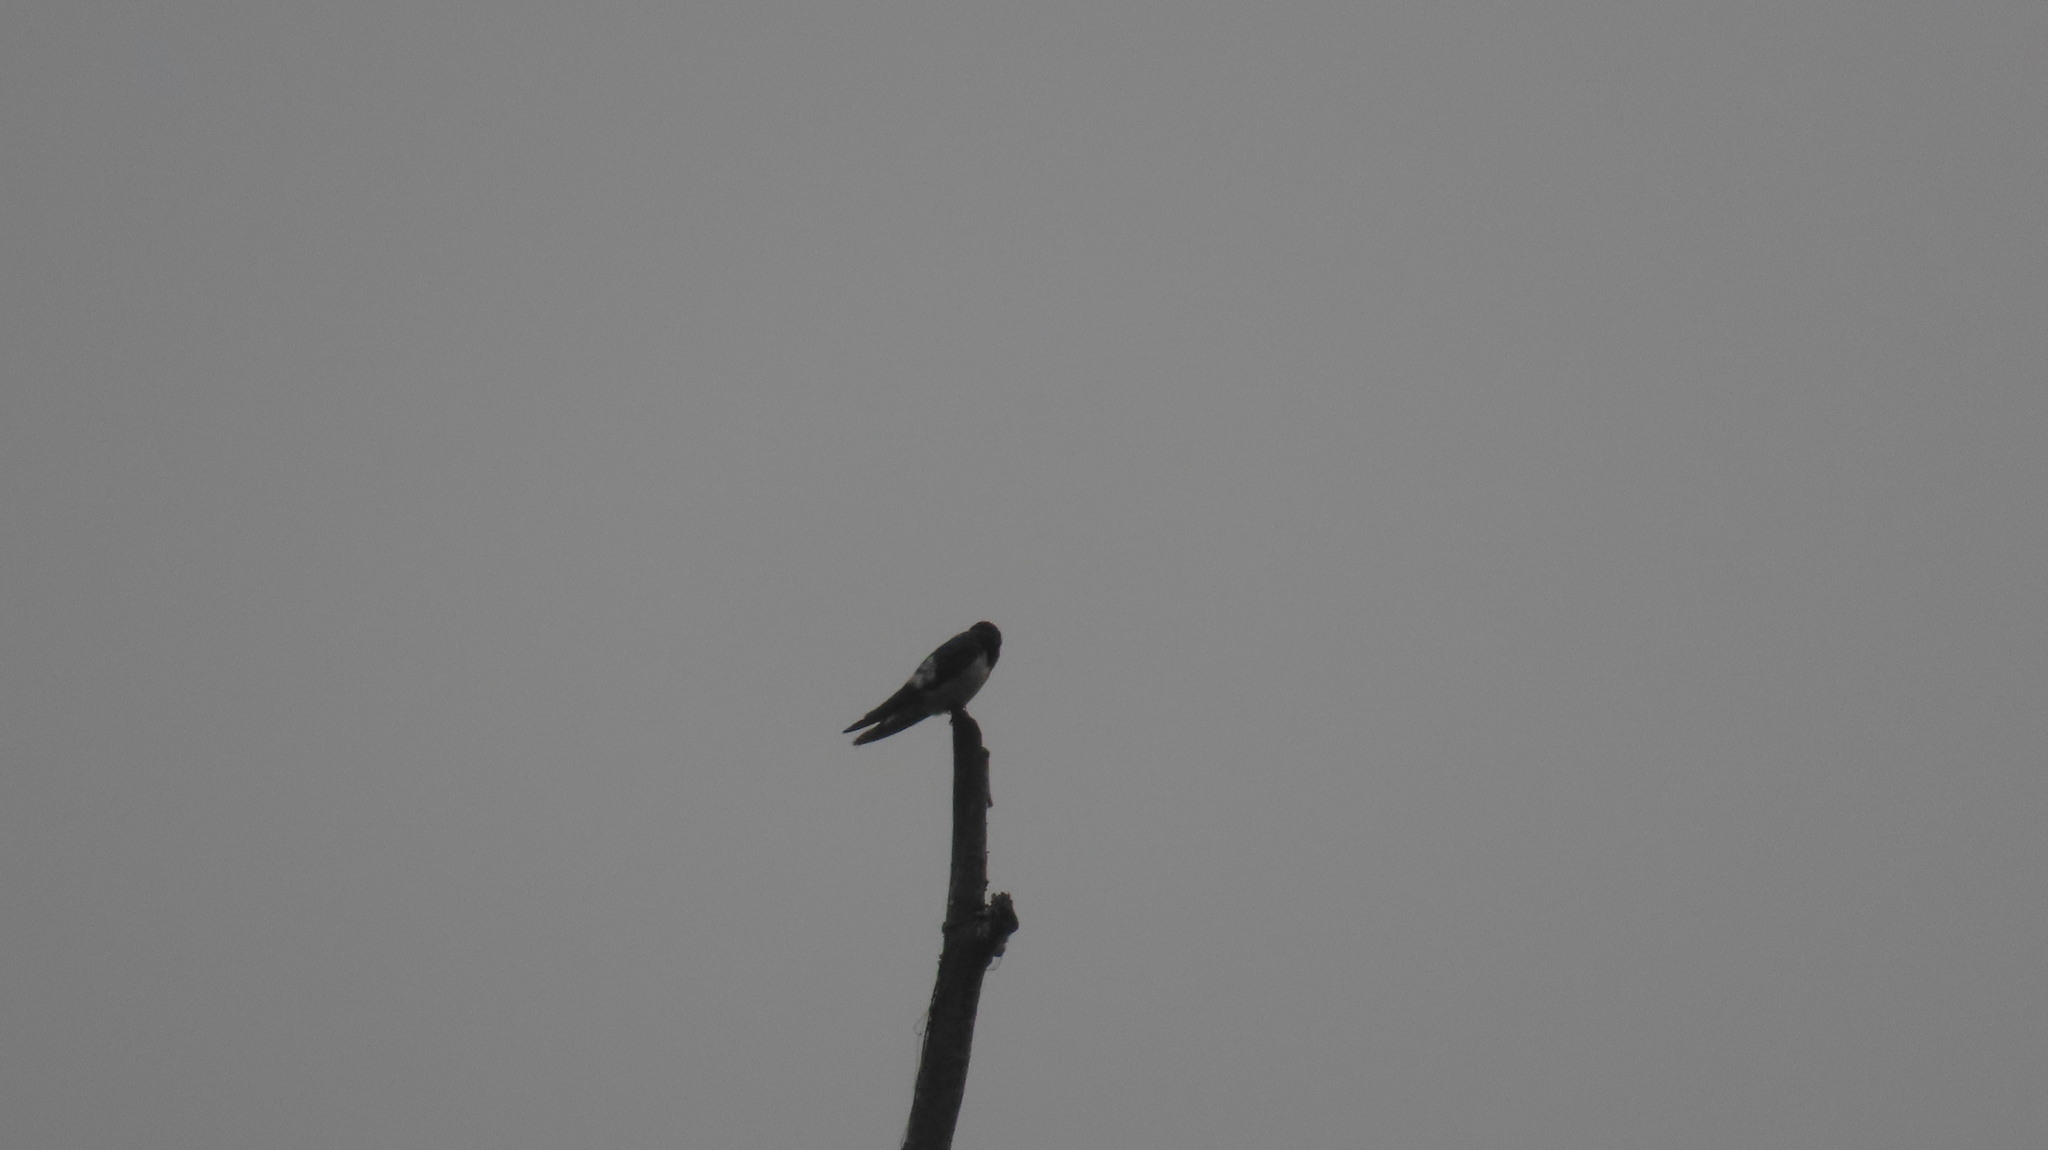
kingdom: Animalia
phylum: Chordata
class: Aves
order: Passeriformes
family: Hirundinidae
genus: Hirundo
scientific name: Hirundo rustica
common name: Barn swallow
